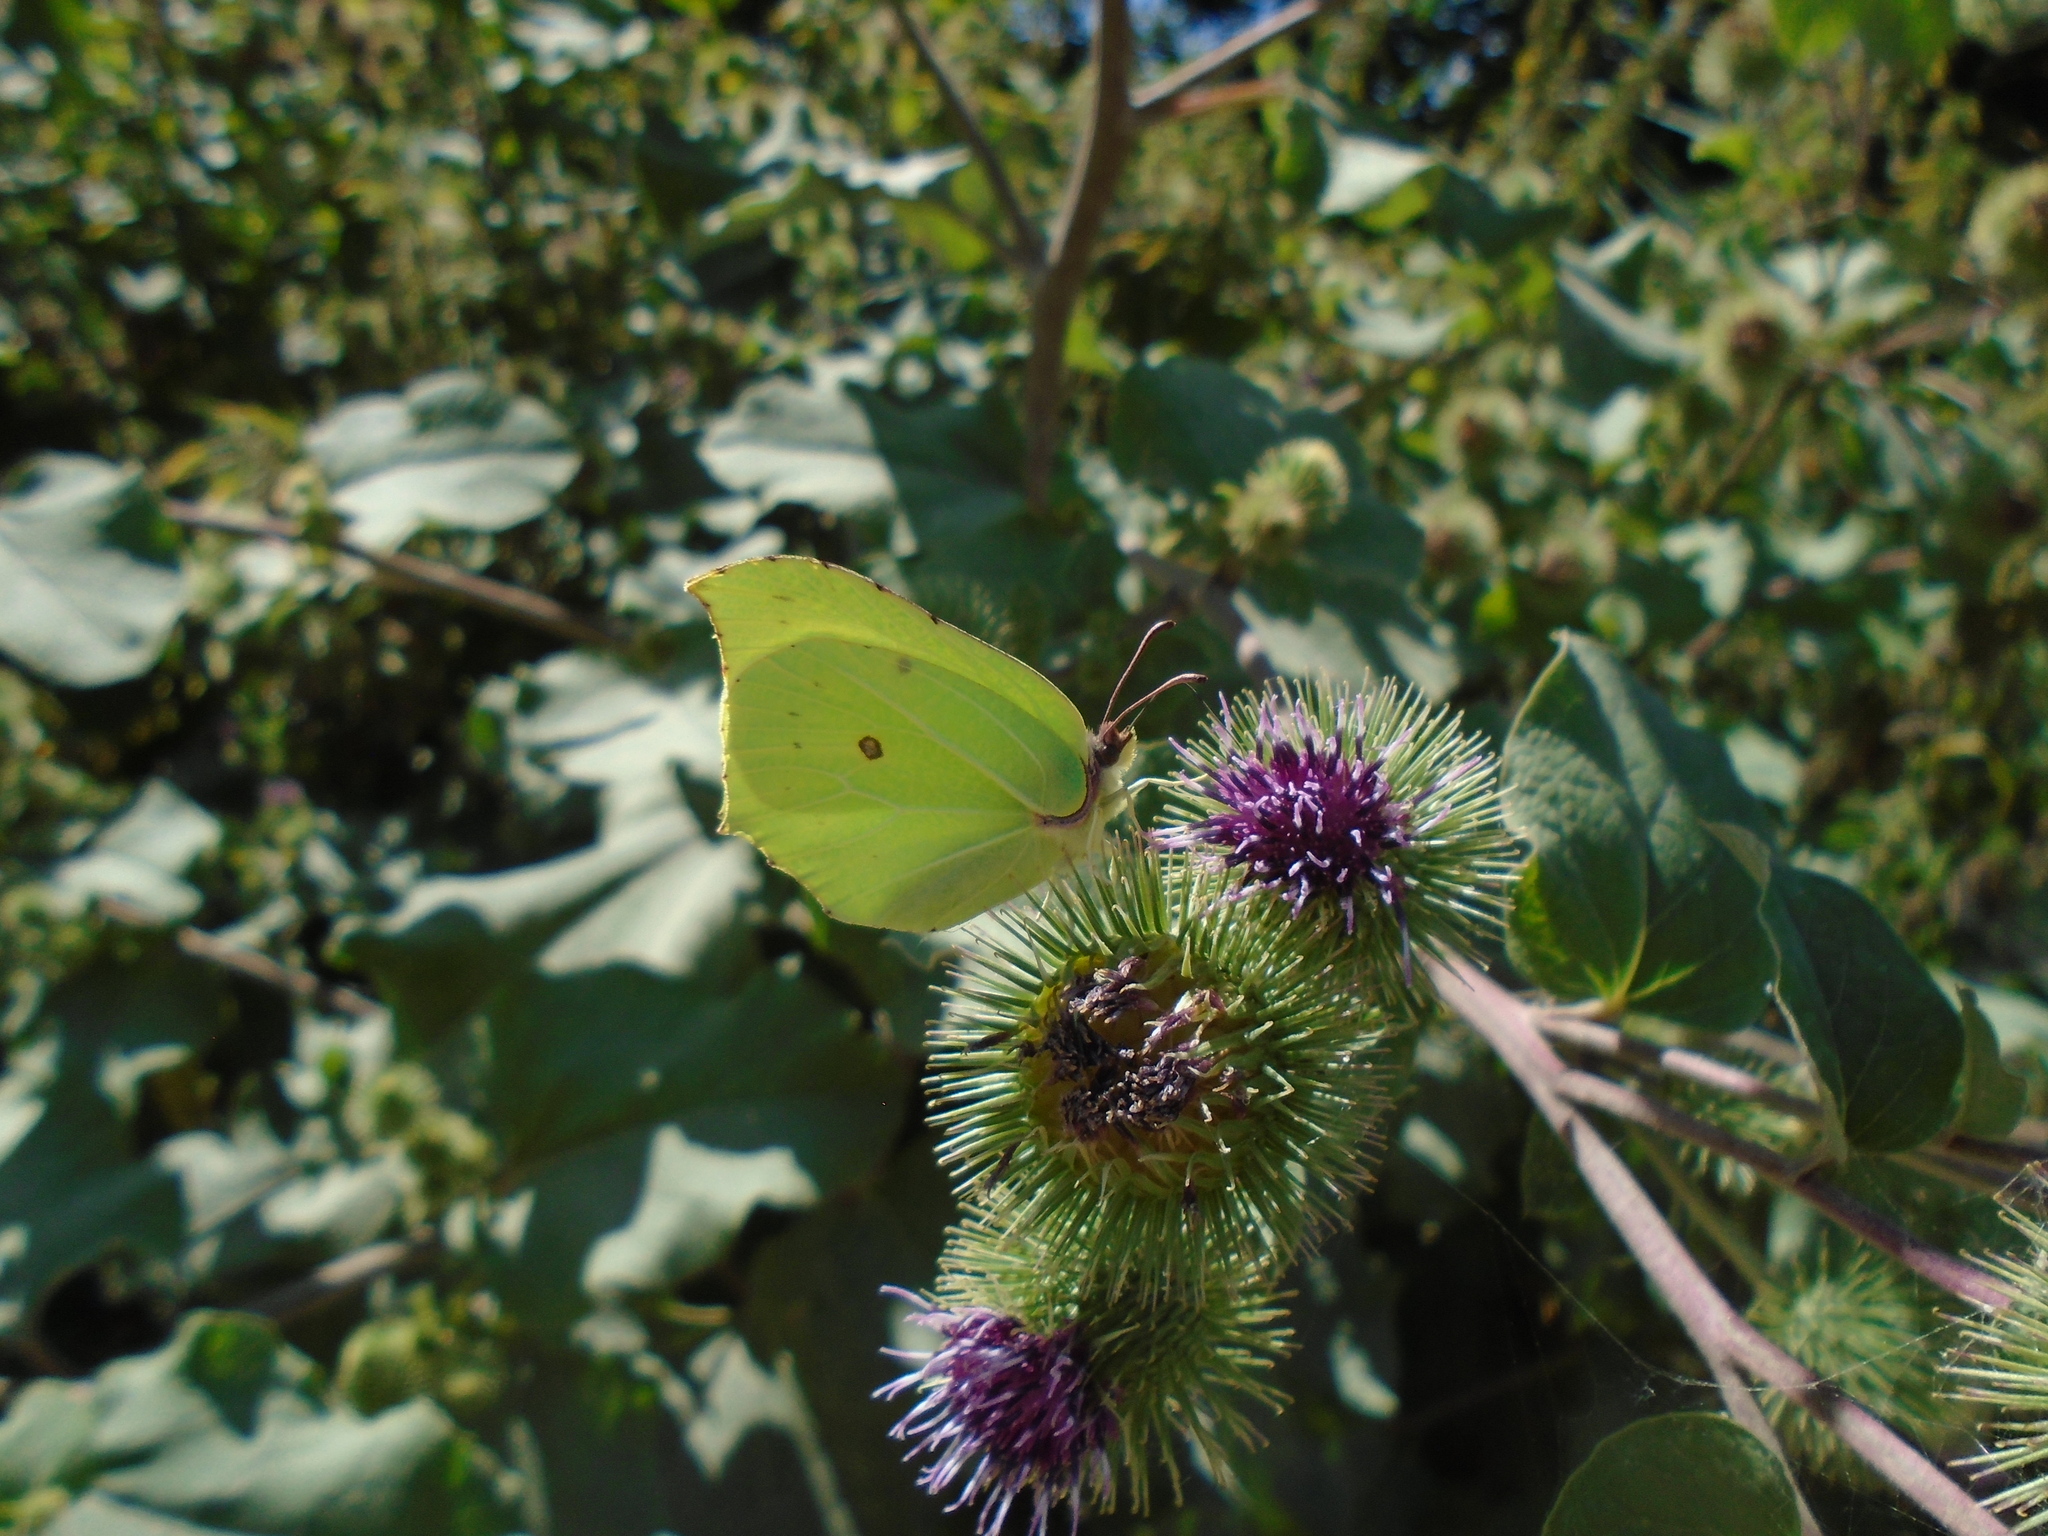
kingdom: Animalia
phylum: Arthropoda
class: Insecta
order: Lepidoptera
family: Pieridae
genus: Gonepteryx
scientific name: Gonepteryx rhamni
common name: Brimstone
